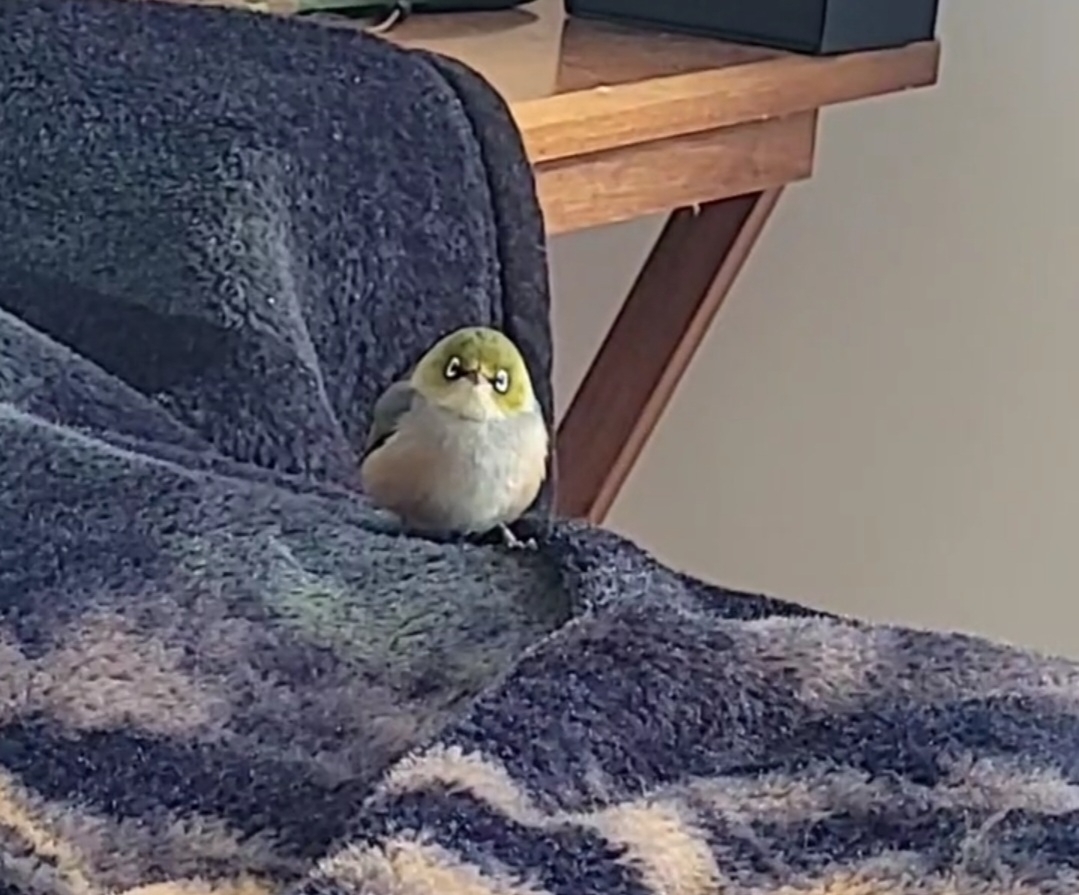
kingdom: Animalia
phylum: Chordata
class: Aves
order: Passeriformes
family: Zosteropidae
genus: Zosterops
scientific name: Zosterops lateralis
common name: Silvereye
